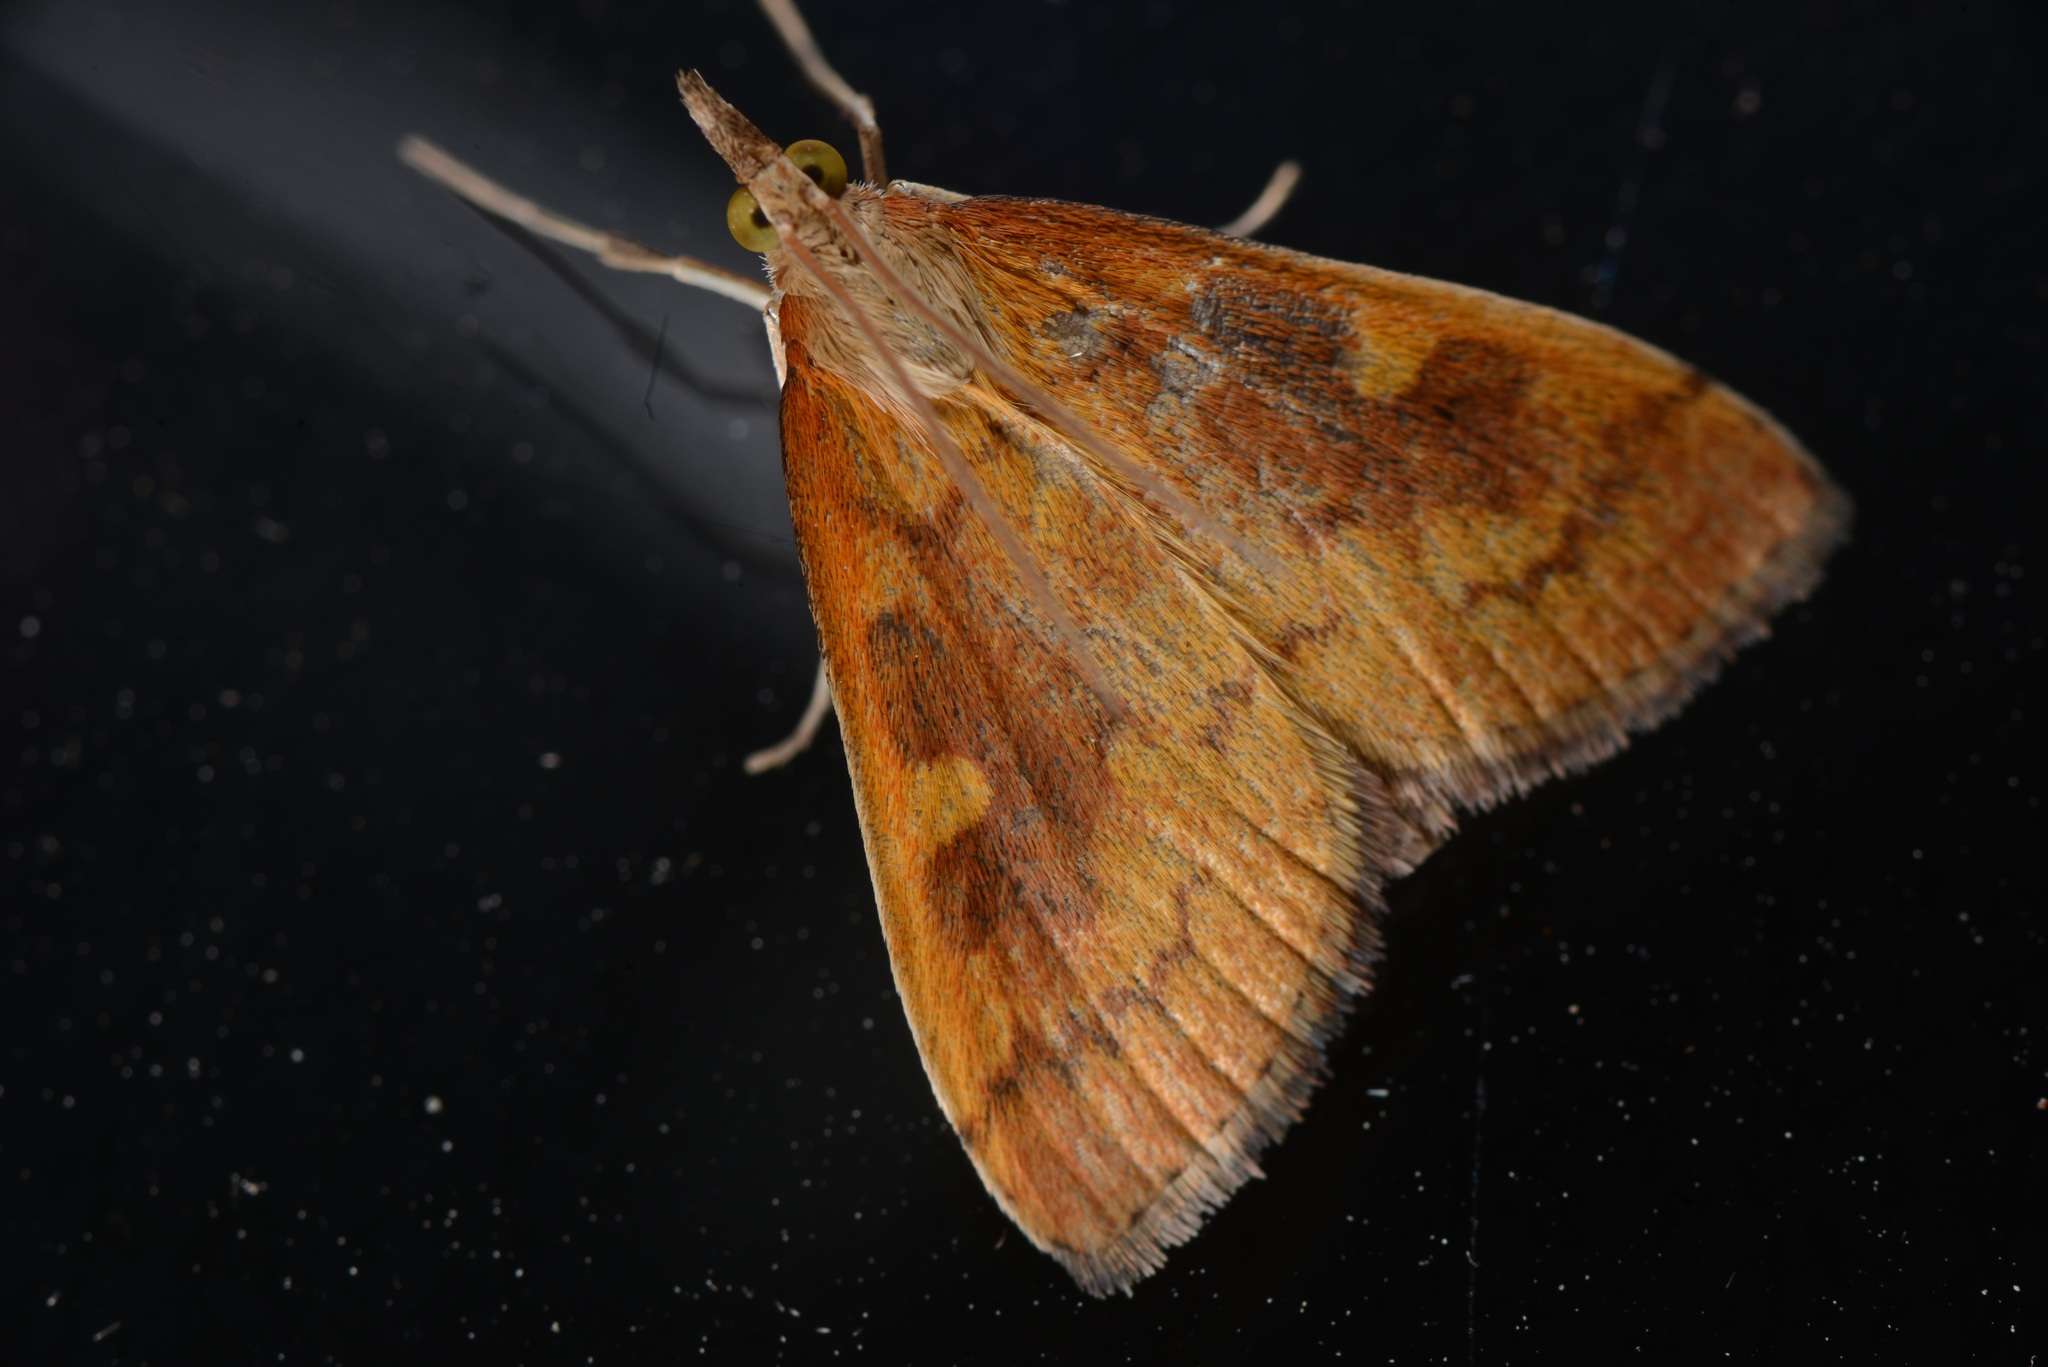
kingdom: Animalia
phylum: Arthropoda
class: Insecta
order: Lepidoptera
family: Crambidae
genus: Udea
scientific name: Udea Mnesictena flavidalis
